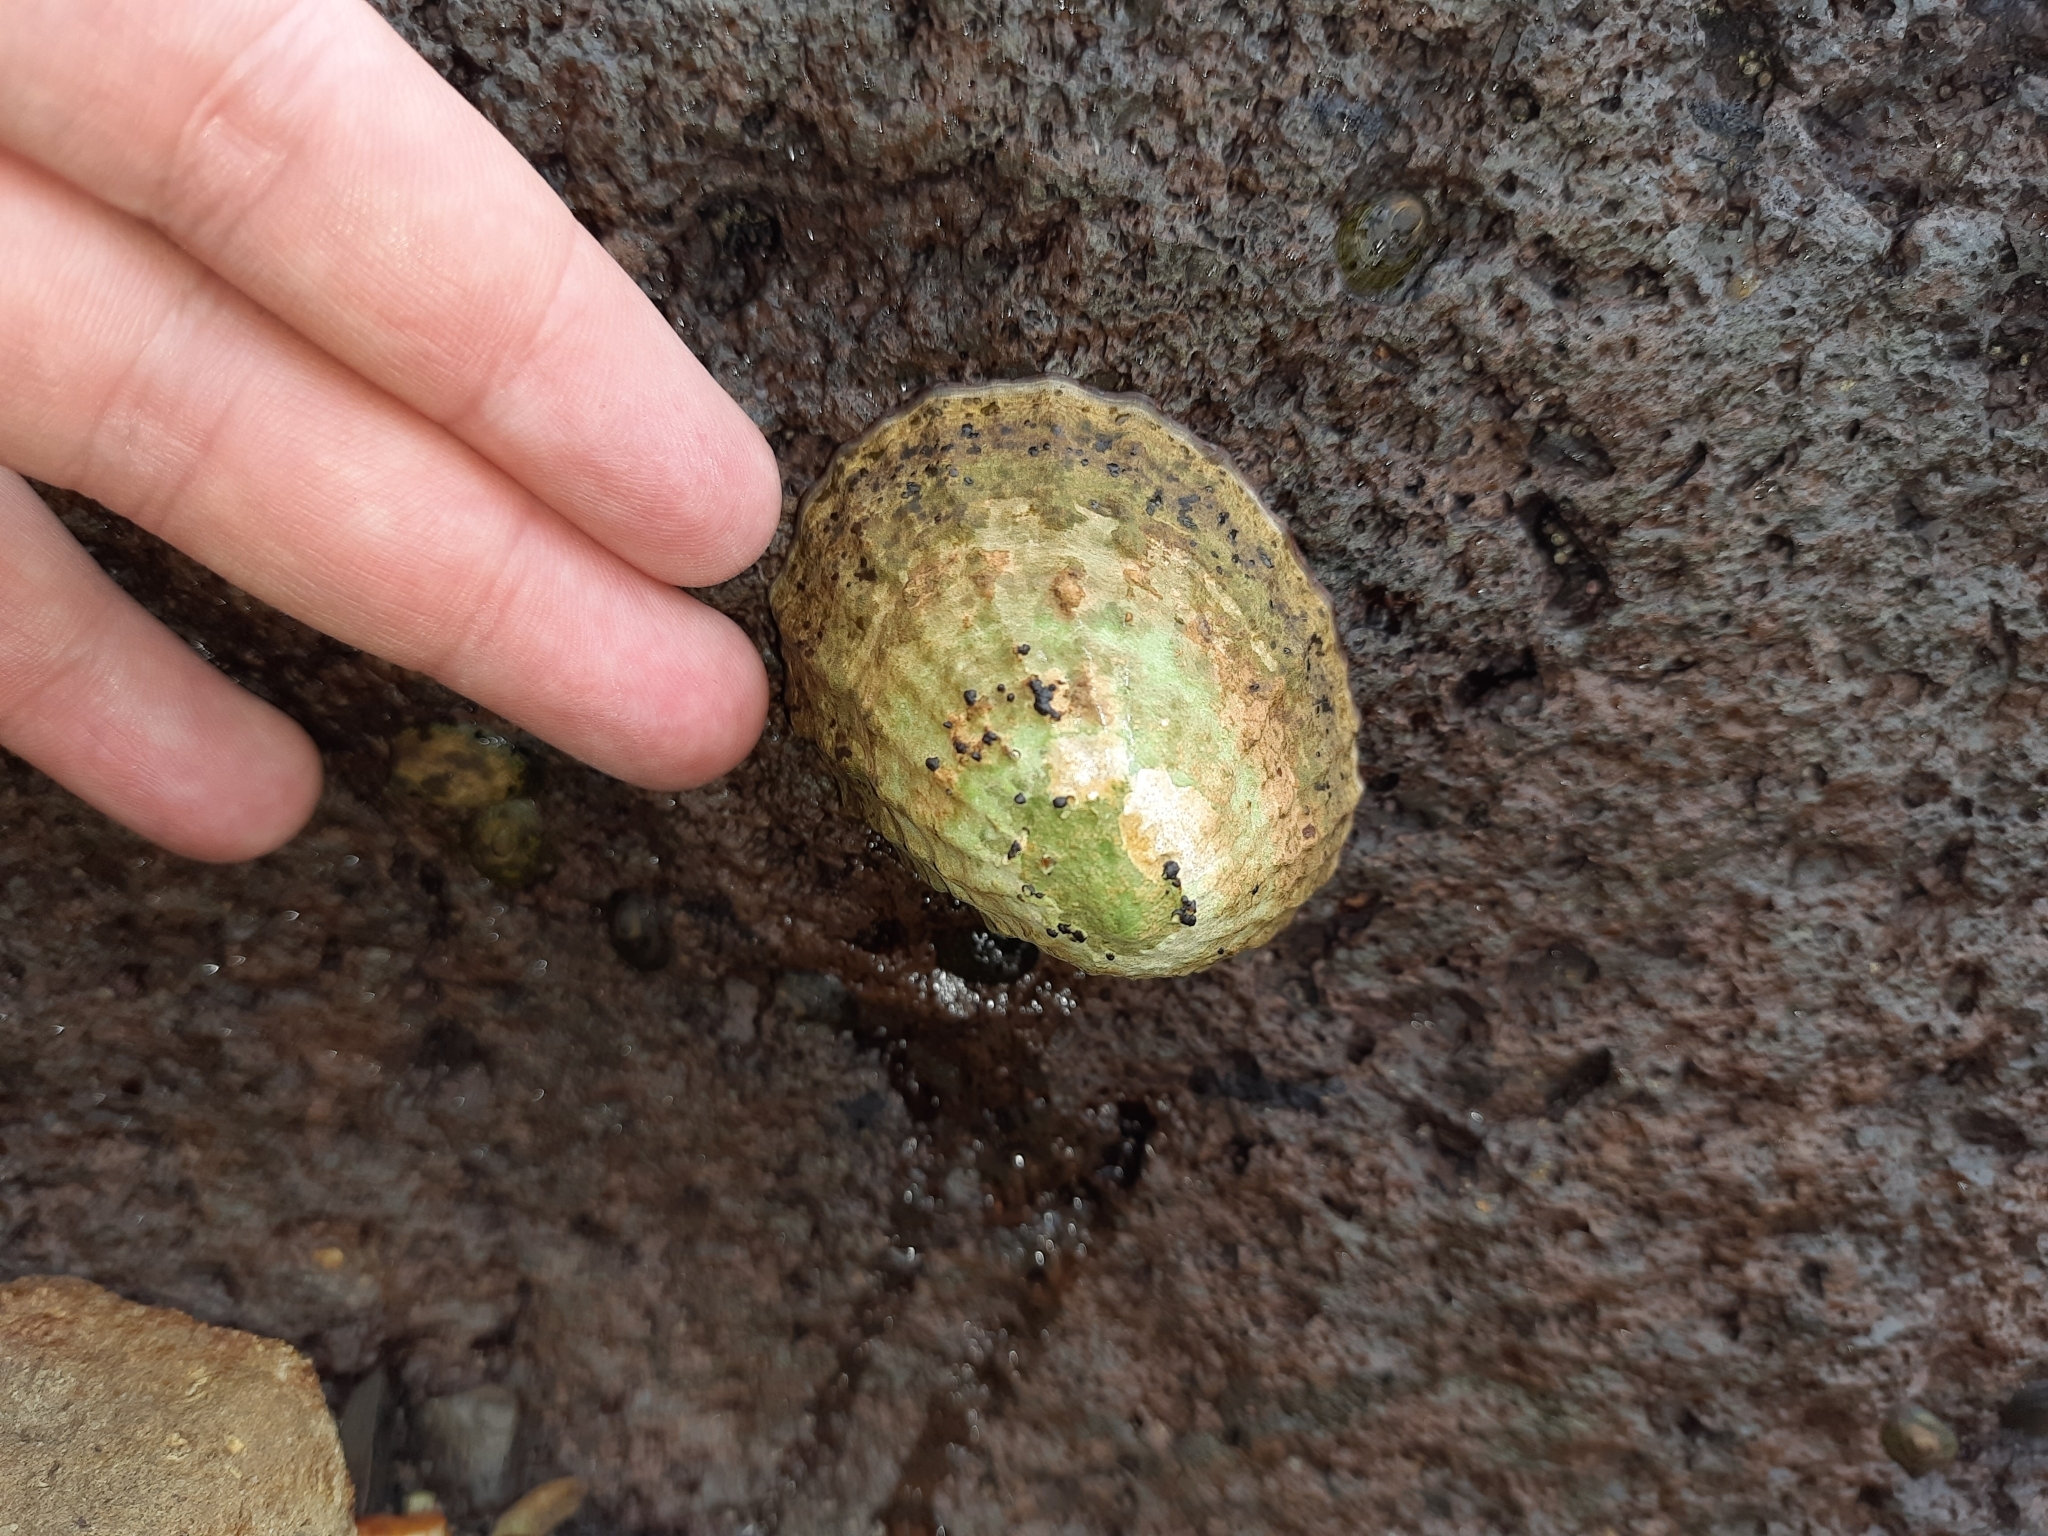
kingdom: Animalia
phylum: Mollusca
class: Gastropoda
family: Nacellidae
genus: Cellana
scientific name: Cellana strigilis
